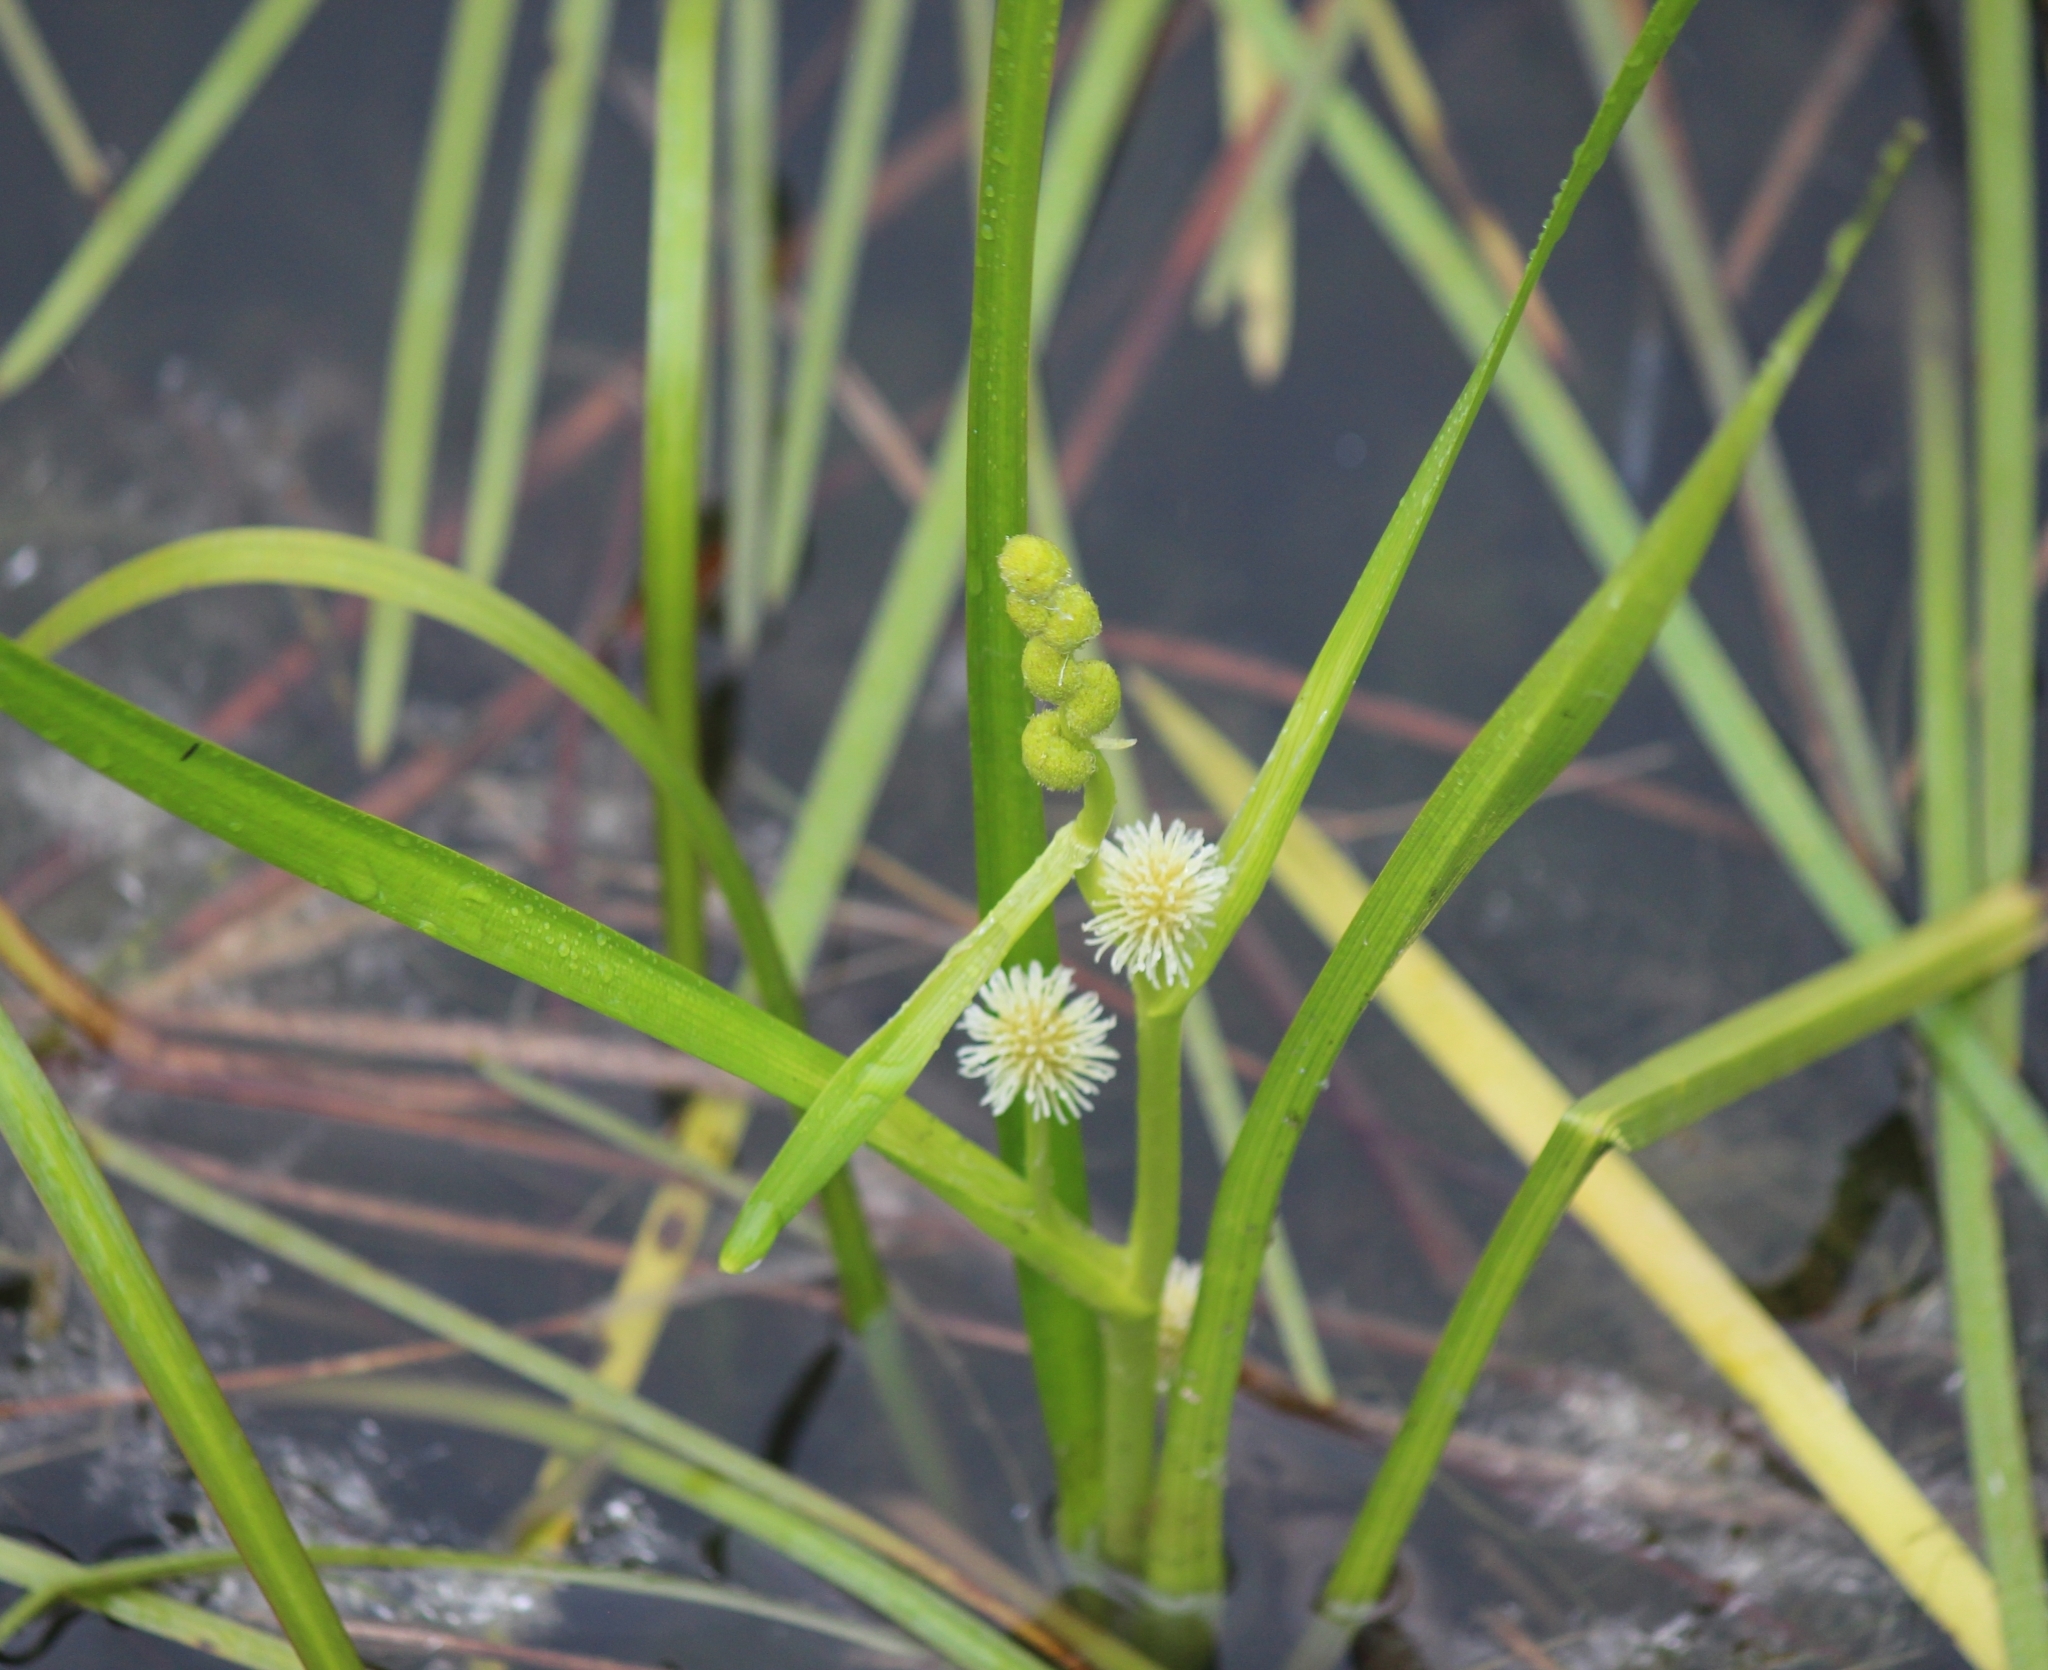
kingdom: Plantae
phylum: Tracheophyta
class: Liliopsida
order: Poales
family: Typhaceae
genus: Sparganium
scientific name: Sparganium emersum
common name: Unbranched bur-reed
